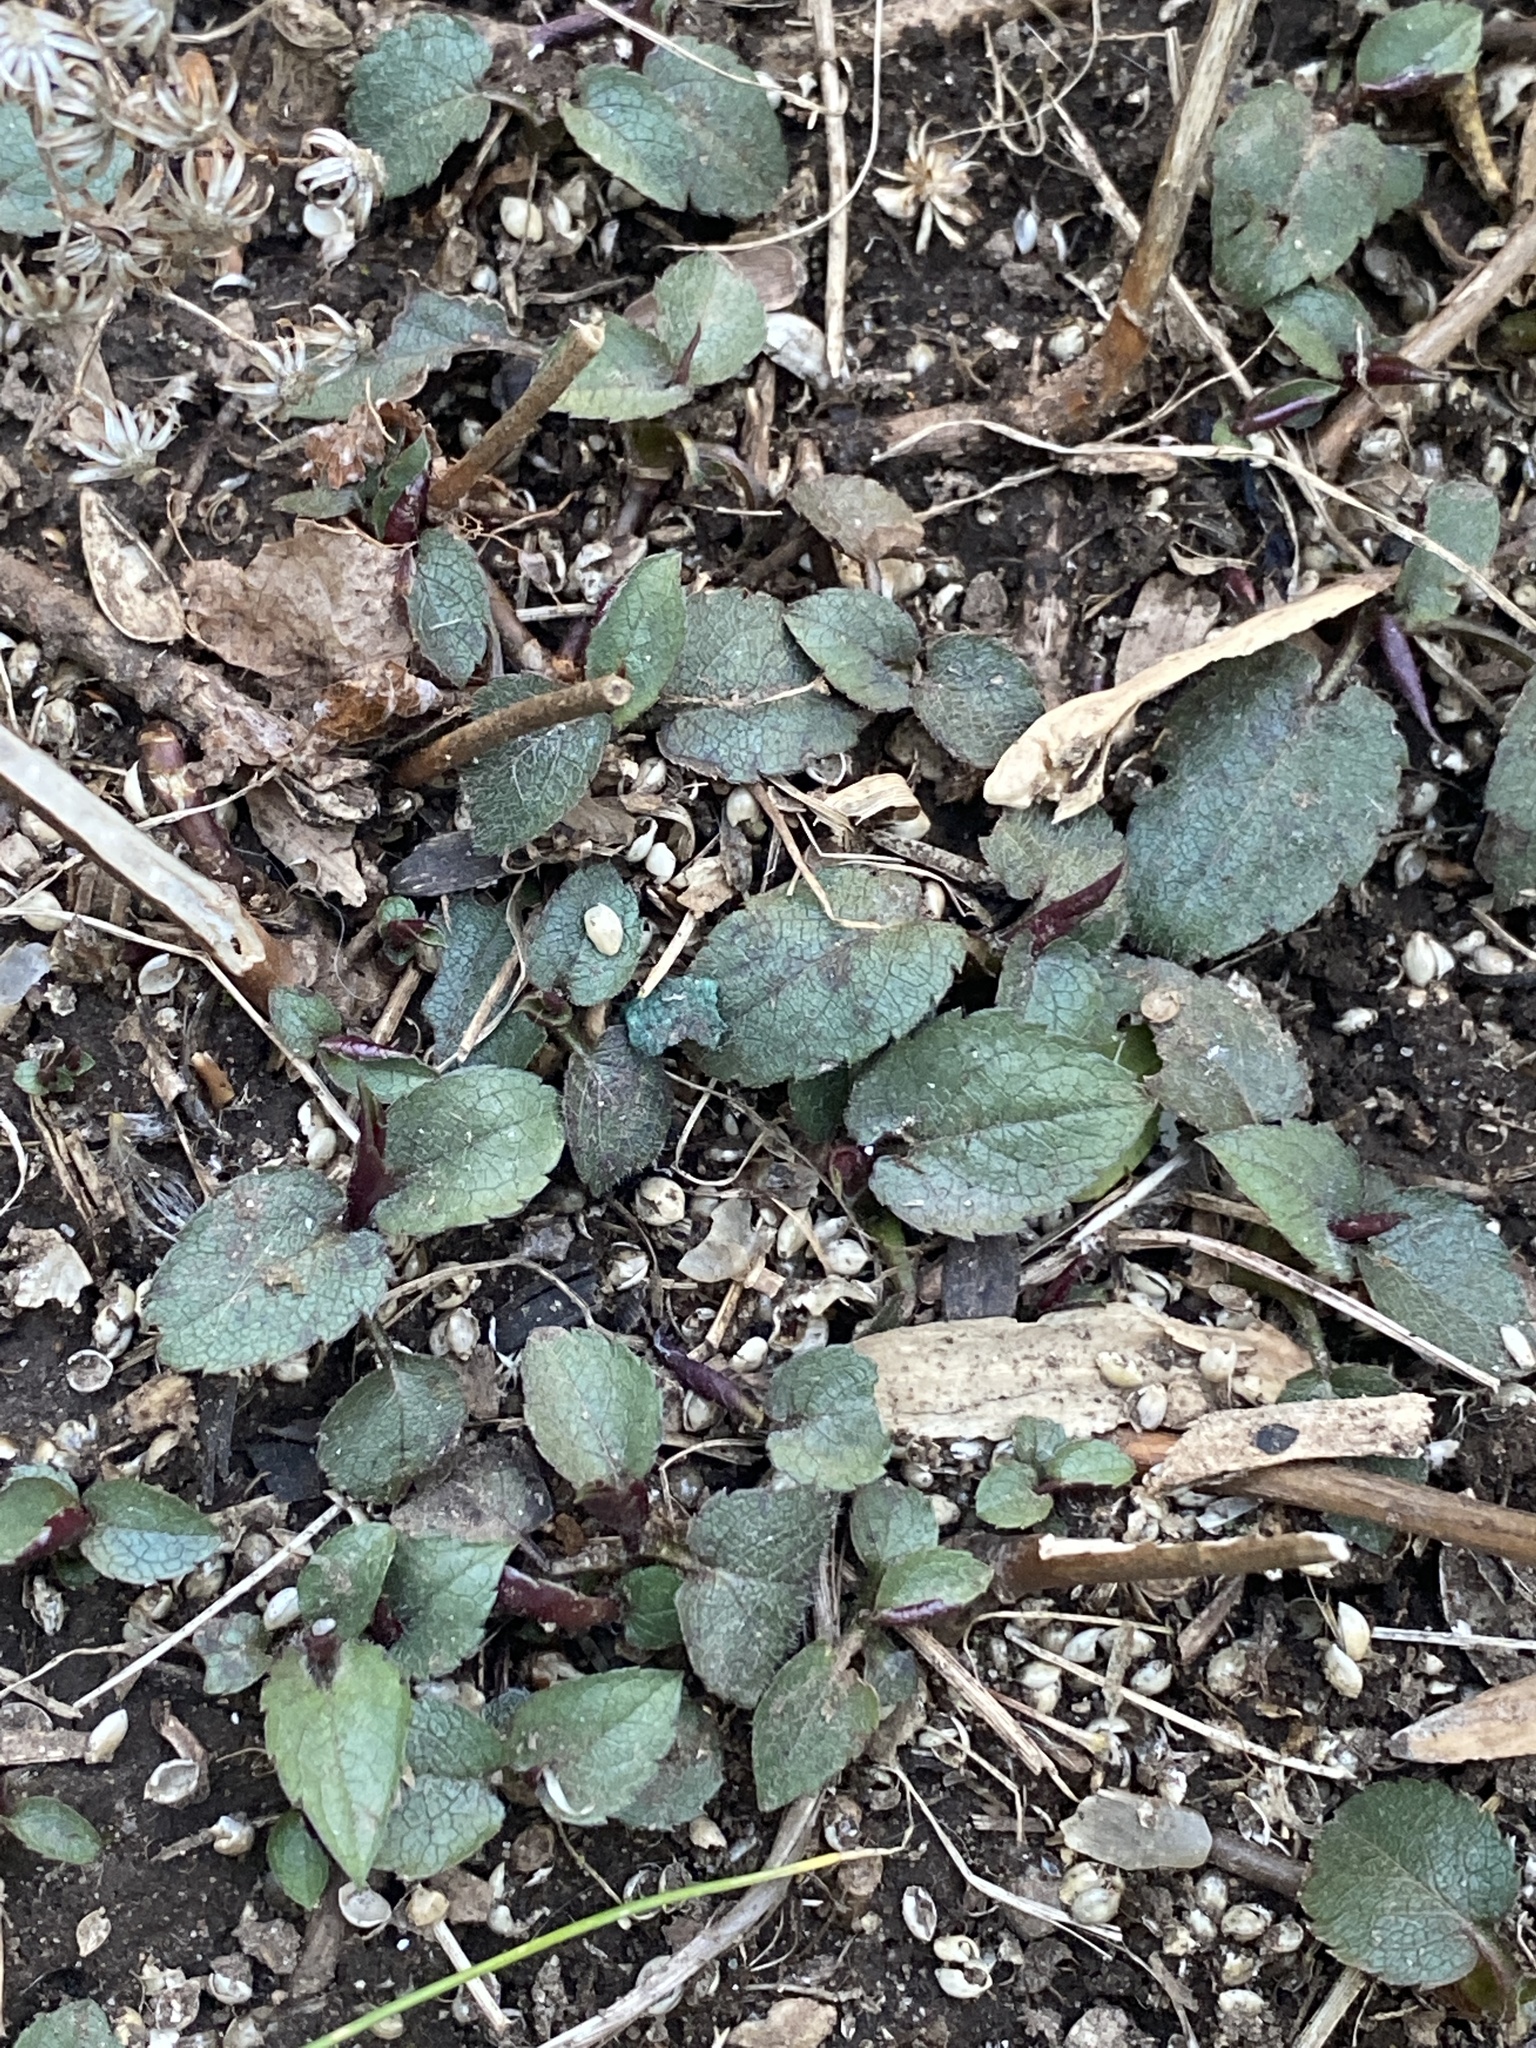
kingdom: Plantae
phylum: Tracheophyta
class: Magnoliopsida
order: Asterales
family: Asteraceae
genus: Eurybia
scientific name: Eurybia divaricata
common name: White wood aster
